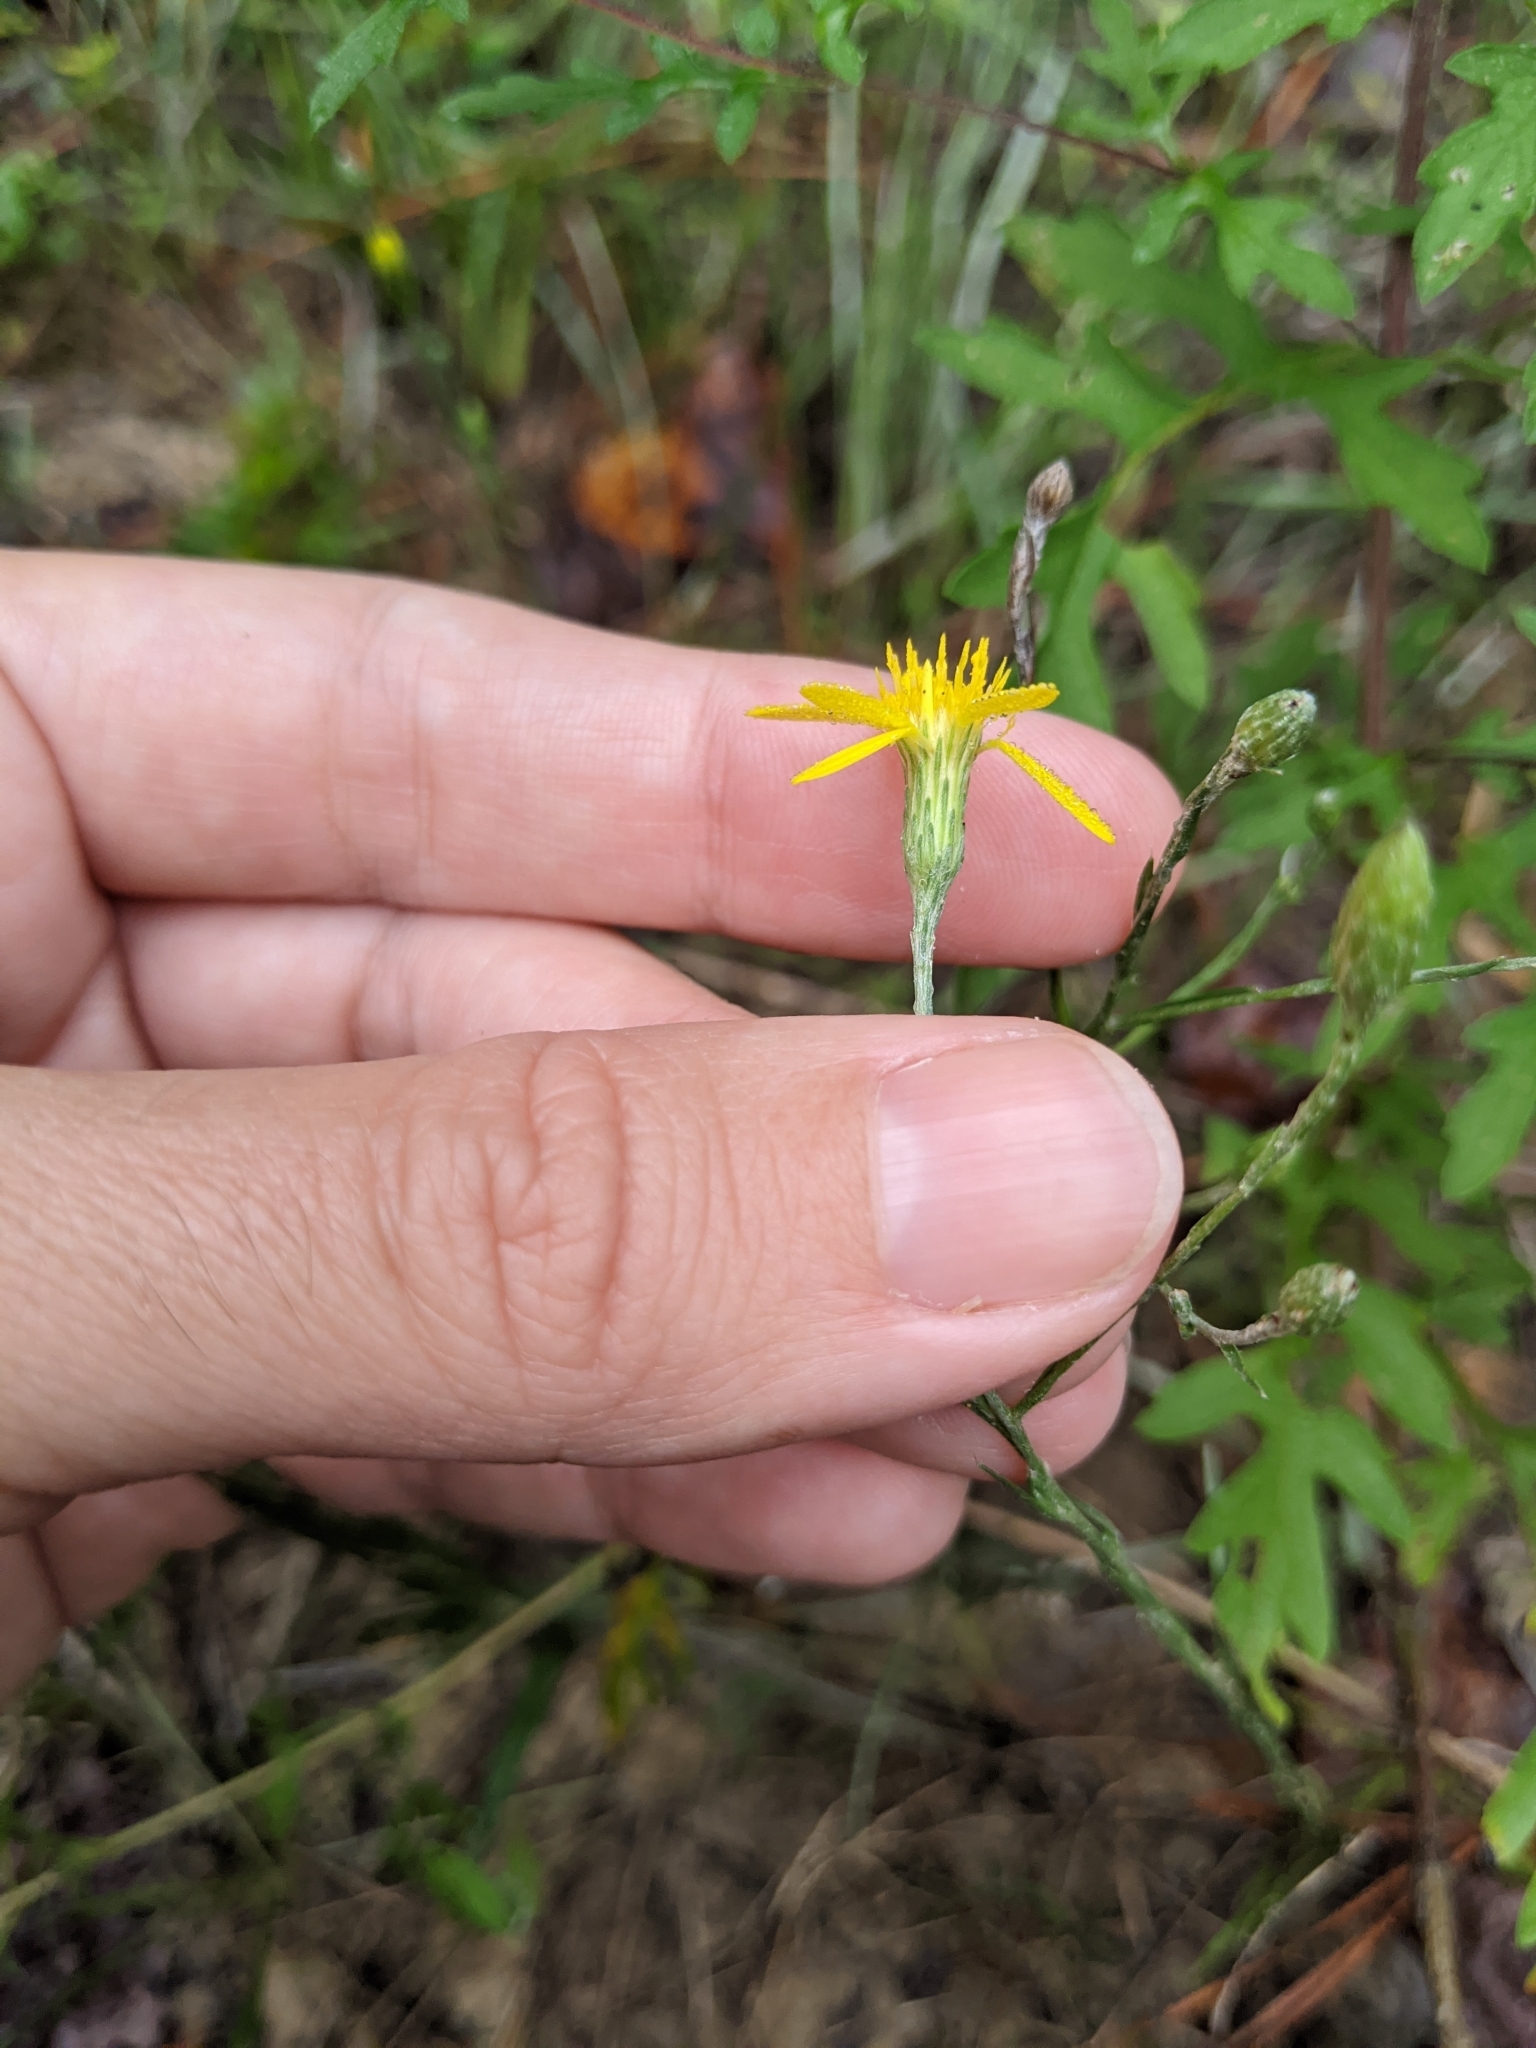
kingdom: Plantae
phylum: Tracheophyta
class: Magnoliopsida
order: Asterales
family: Asteraceae
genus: Pityopsis
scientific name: Pityopsis graminifolia
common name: Grass-leaf golden-aster
